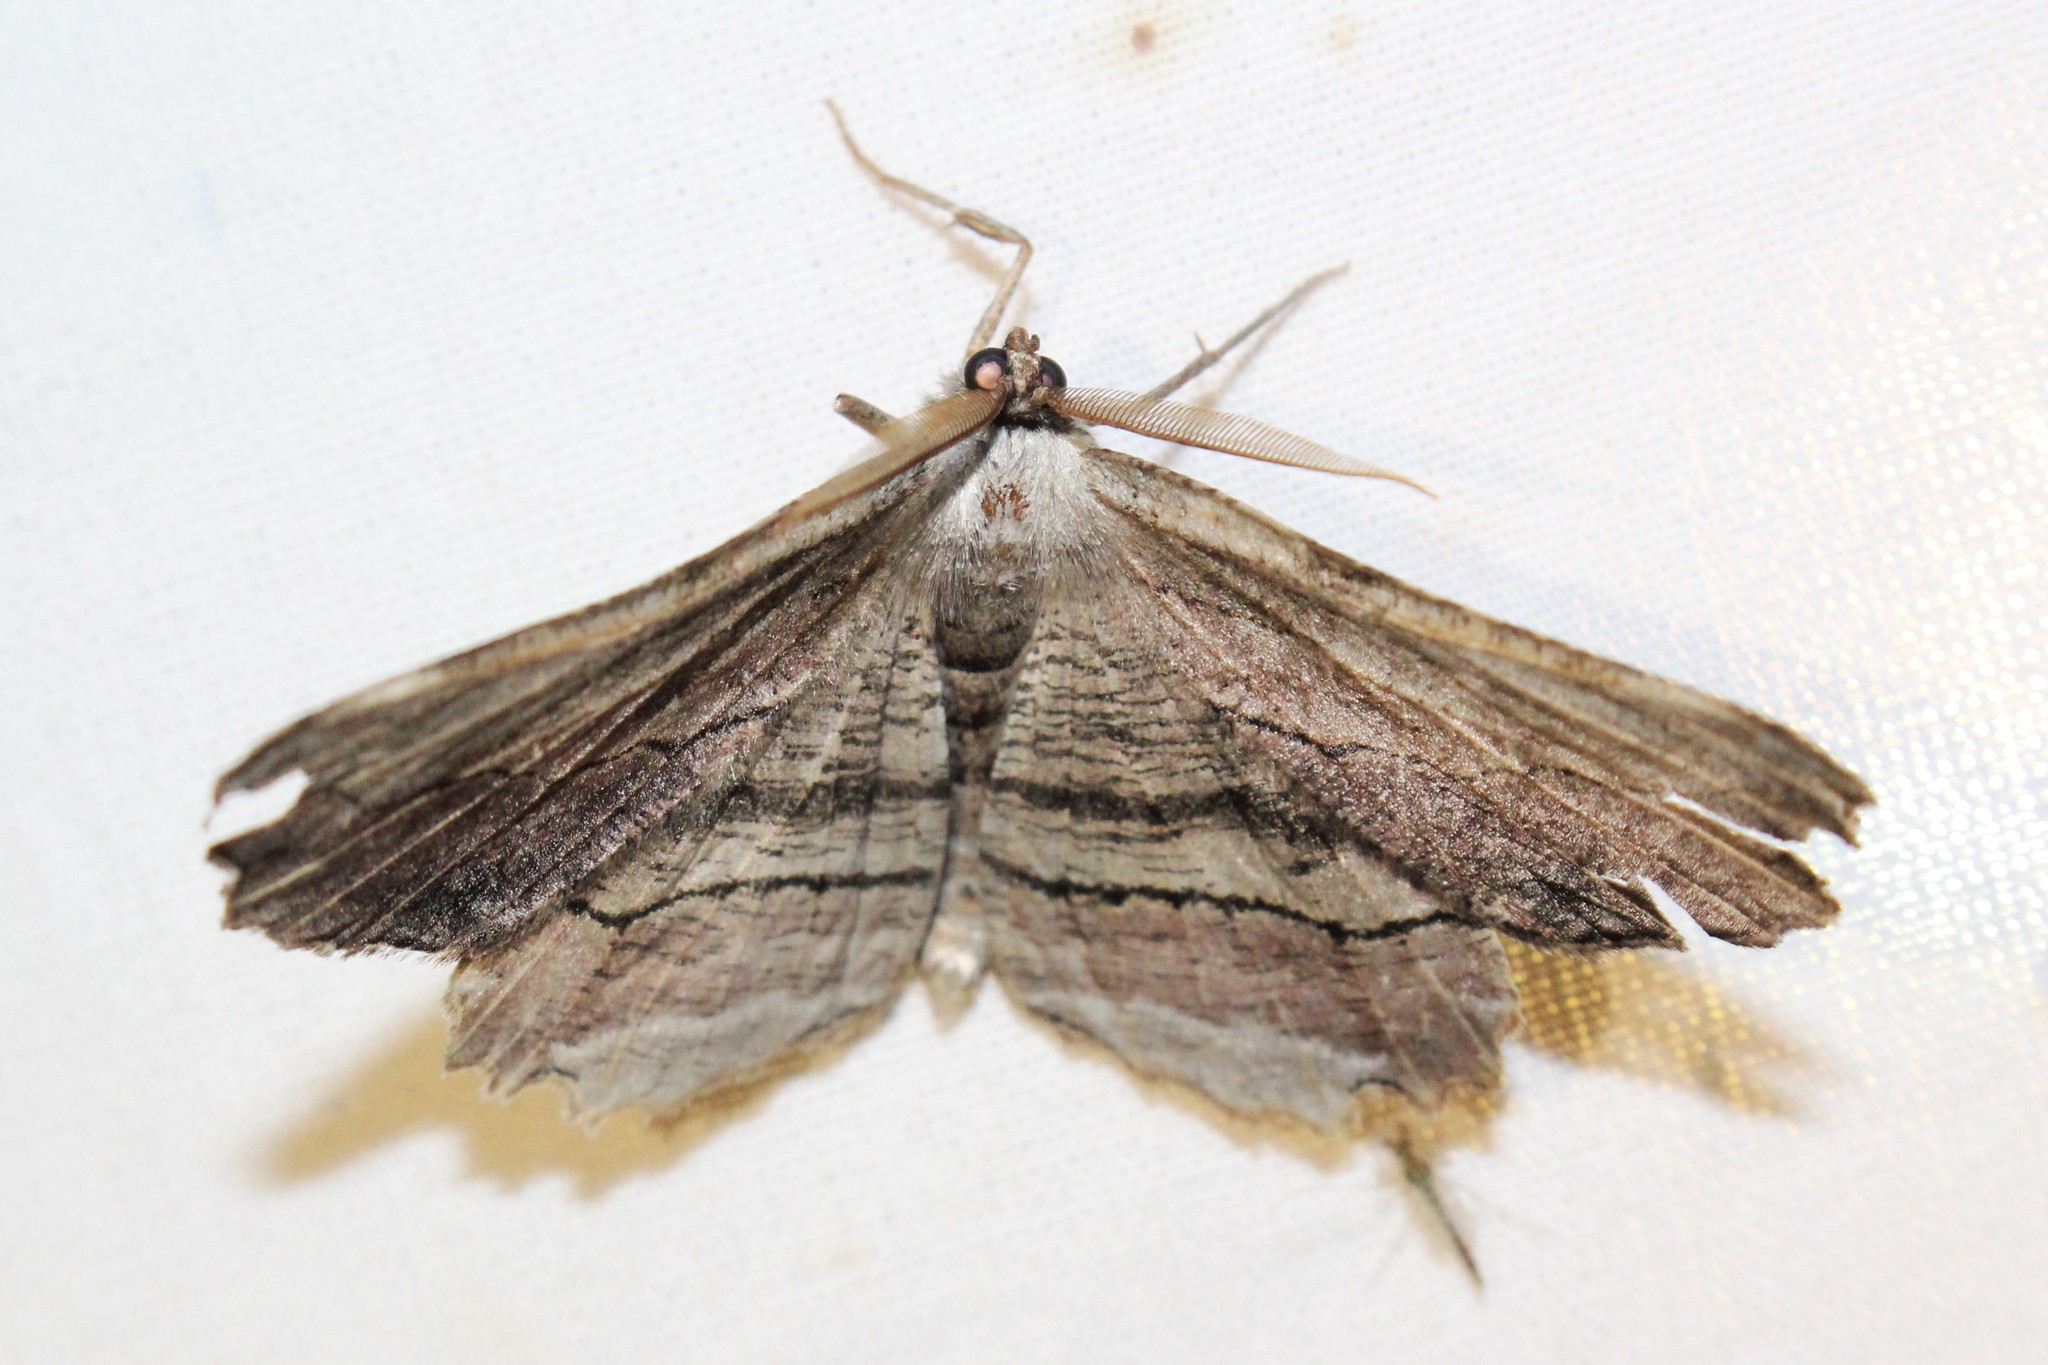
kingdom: Animalia
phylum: Arthropoda
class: Insecta
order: Lepidoptera
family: Geometridae
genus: Lytrosis
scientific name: Lytrosis unitaria
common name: Common lytrosis
